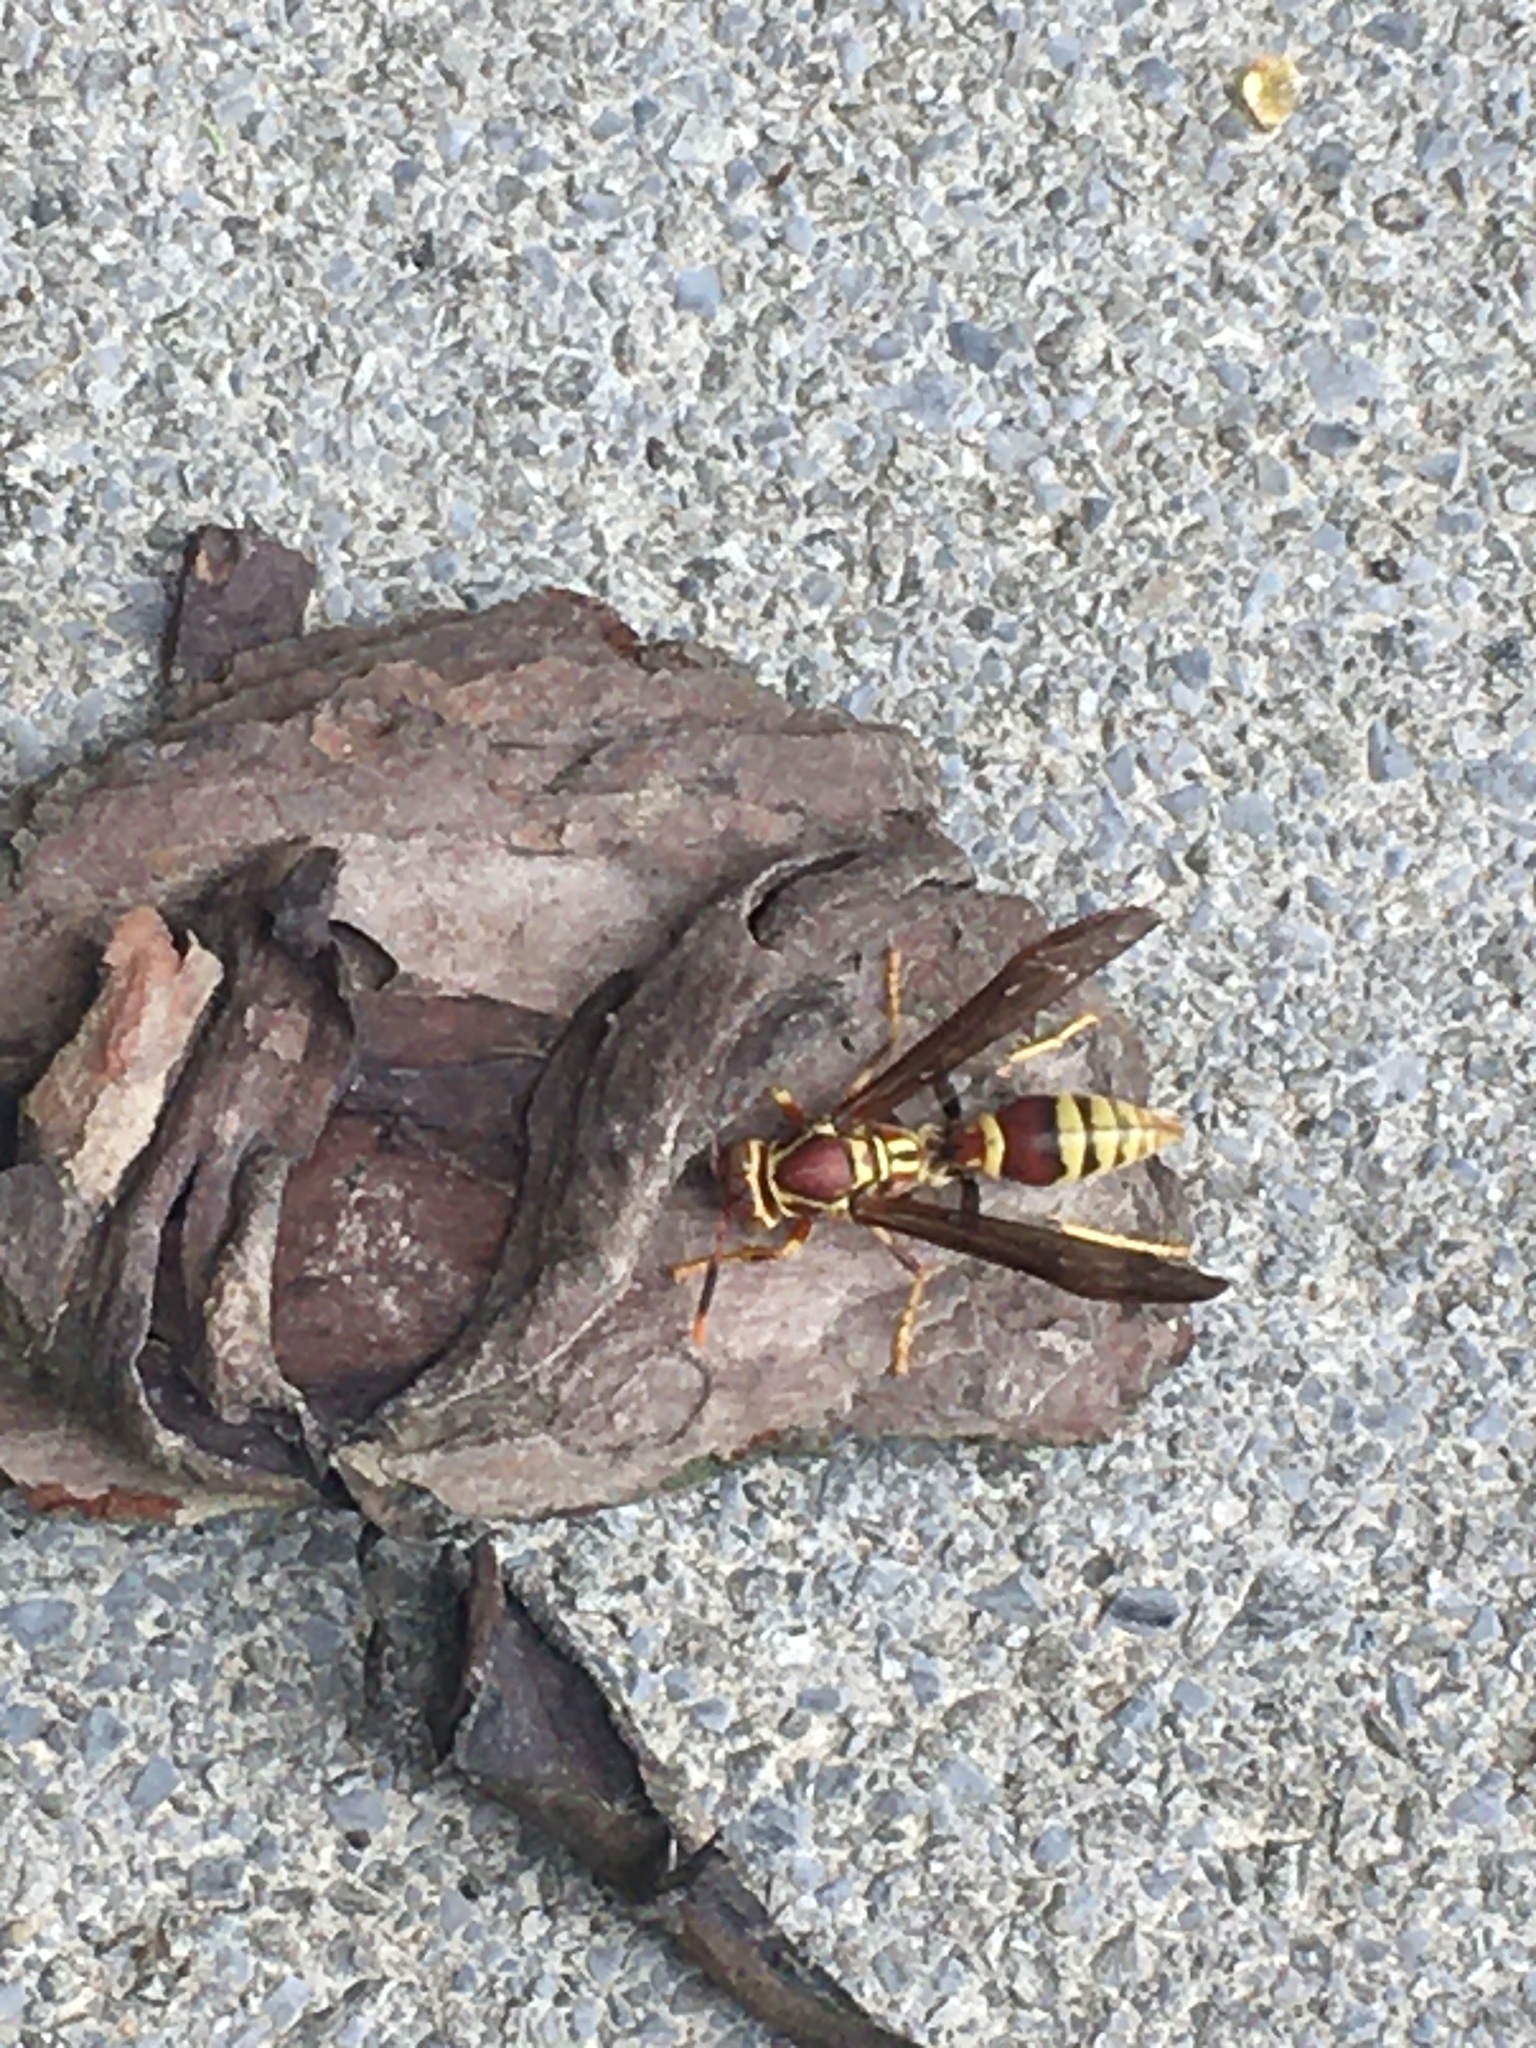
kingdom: Animalia
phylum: Arthropoda
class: Insecta
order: Hymenoptera
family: Eumenidae
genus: Polistes
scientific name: Polistes exclamans
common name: Paper wasp
